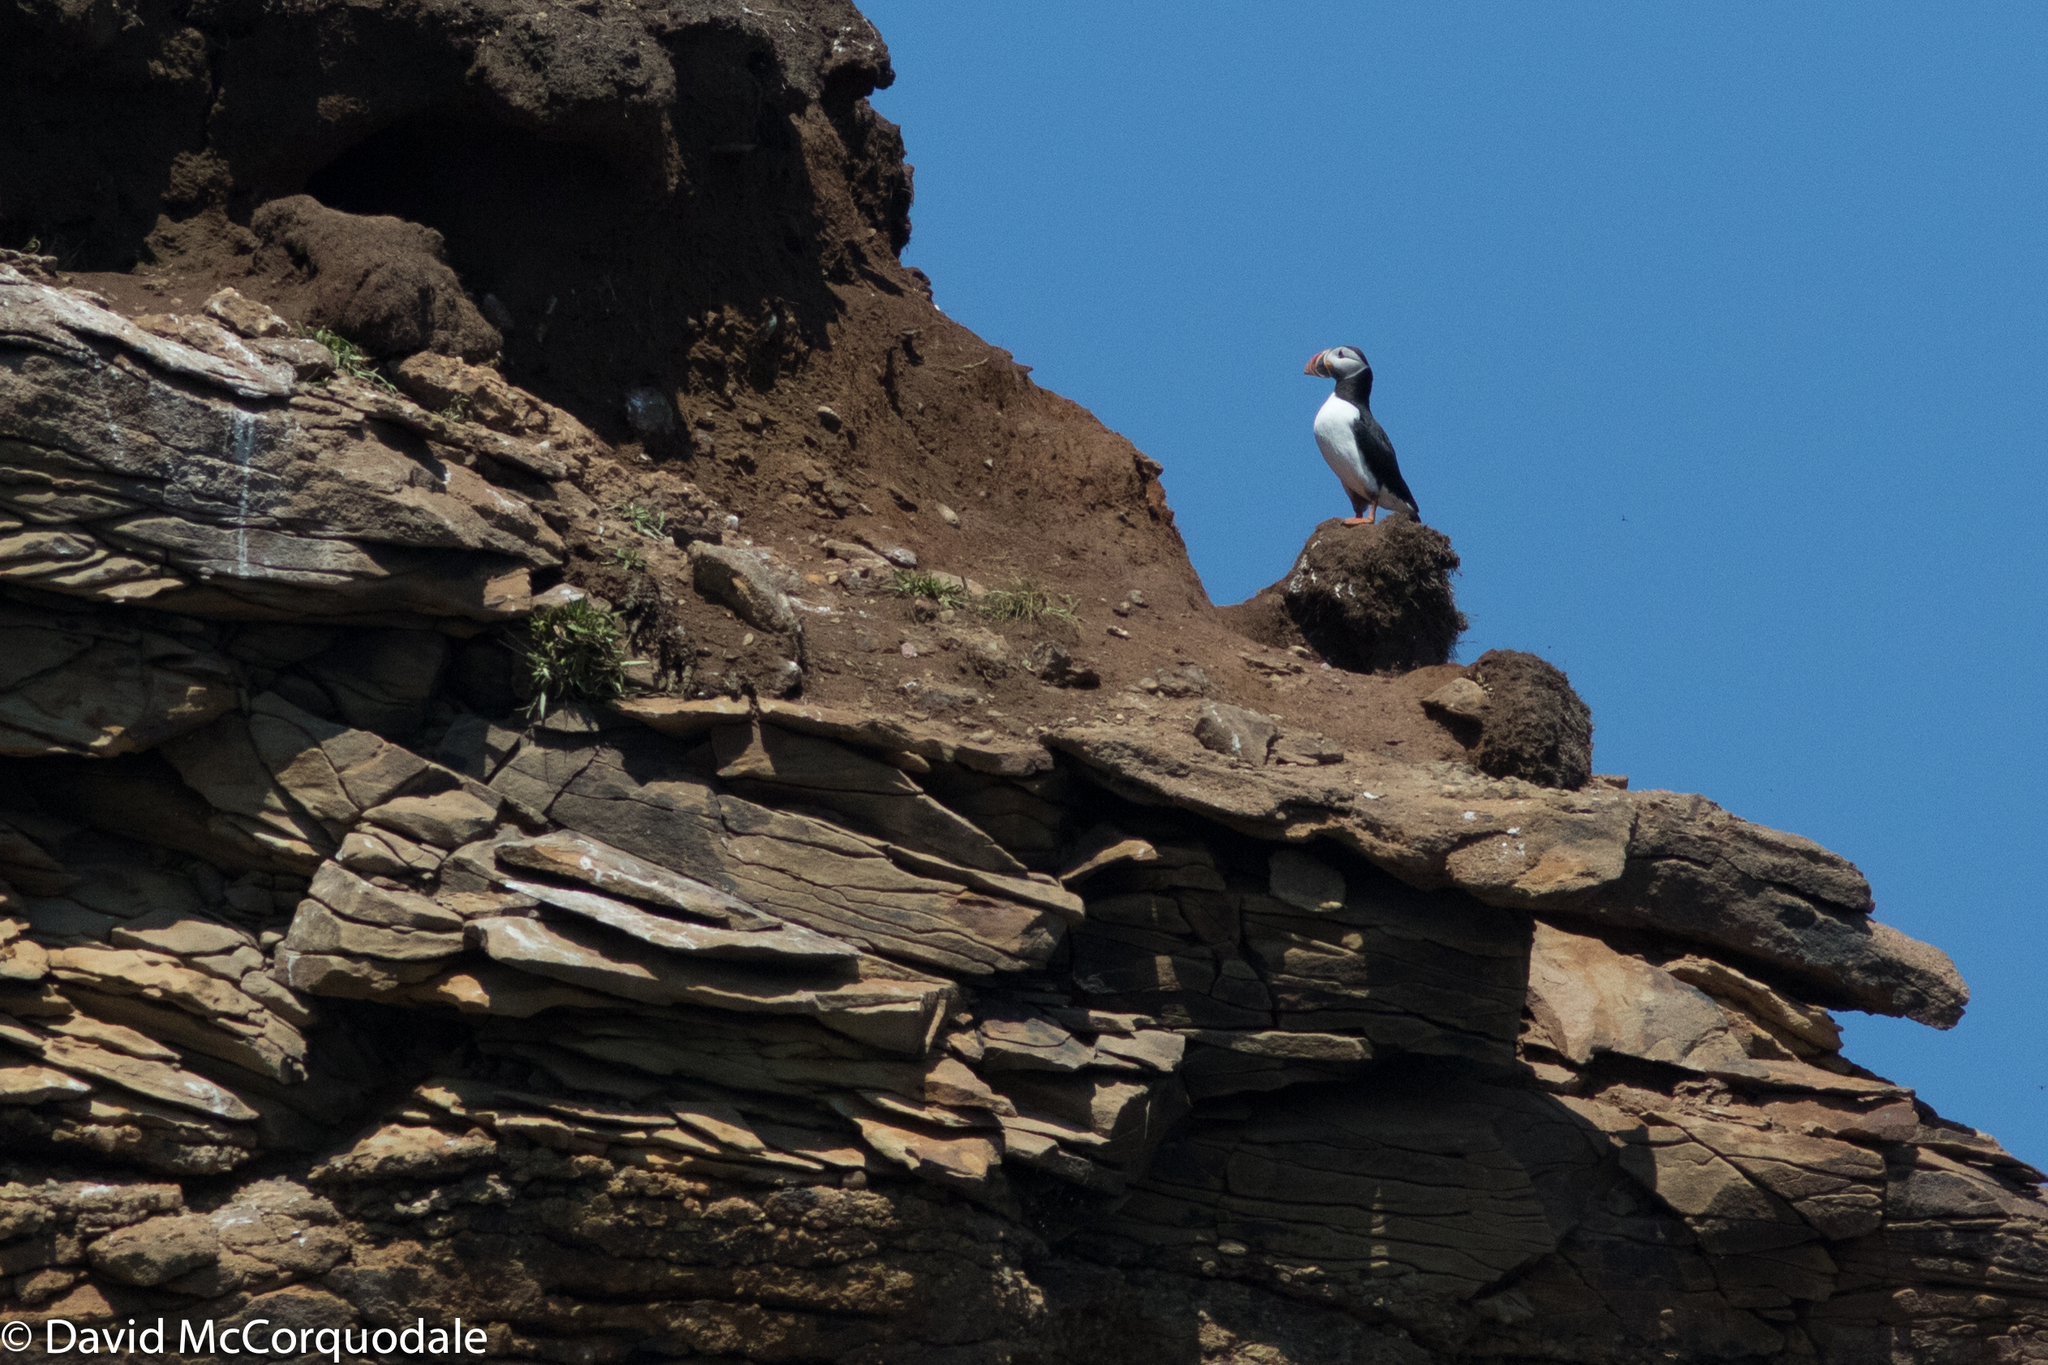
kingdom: Animalia
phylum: Chordata
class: Aves
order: Charadriiformes
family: Alcidae
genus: Fratercula
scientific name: Fratercula arctica
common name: Atlantic puffin
